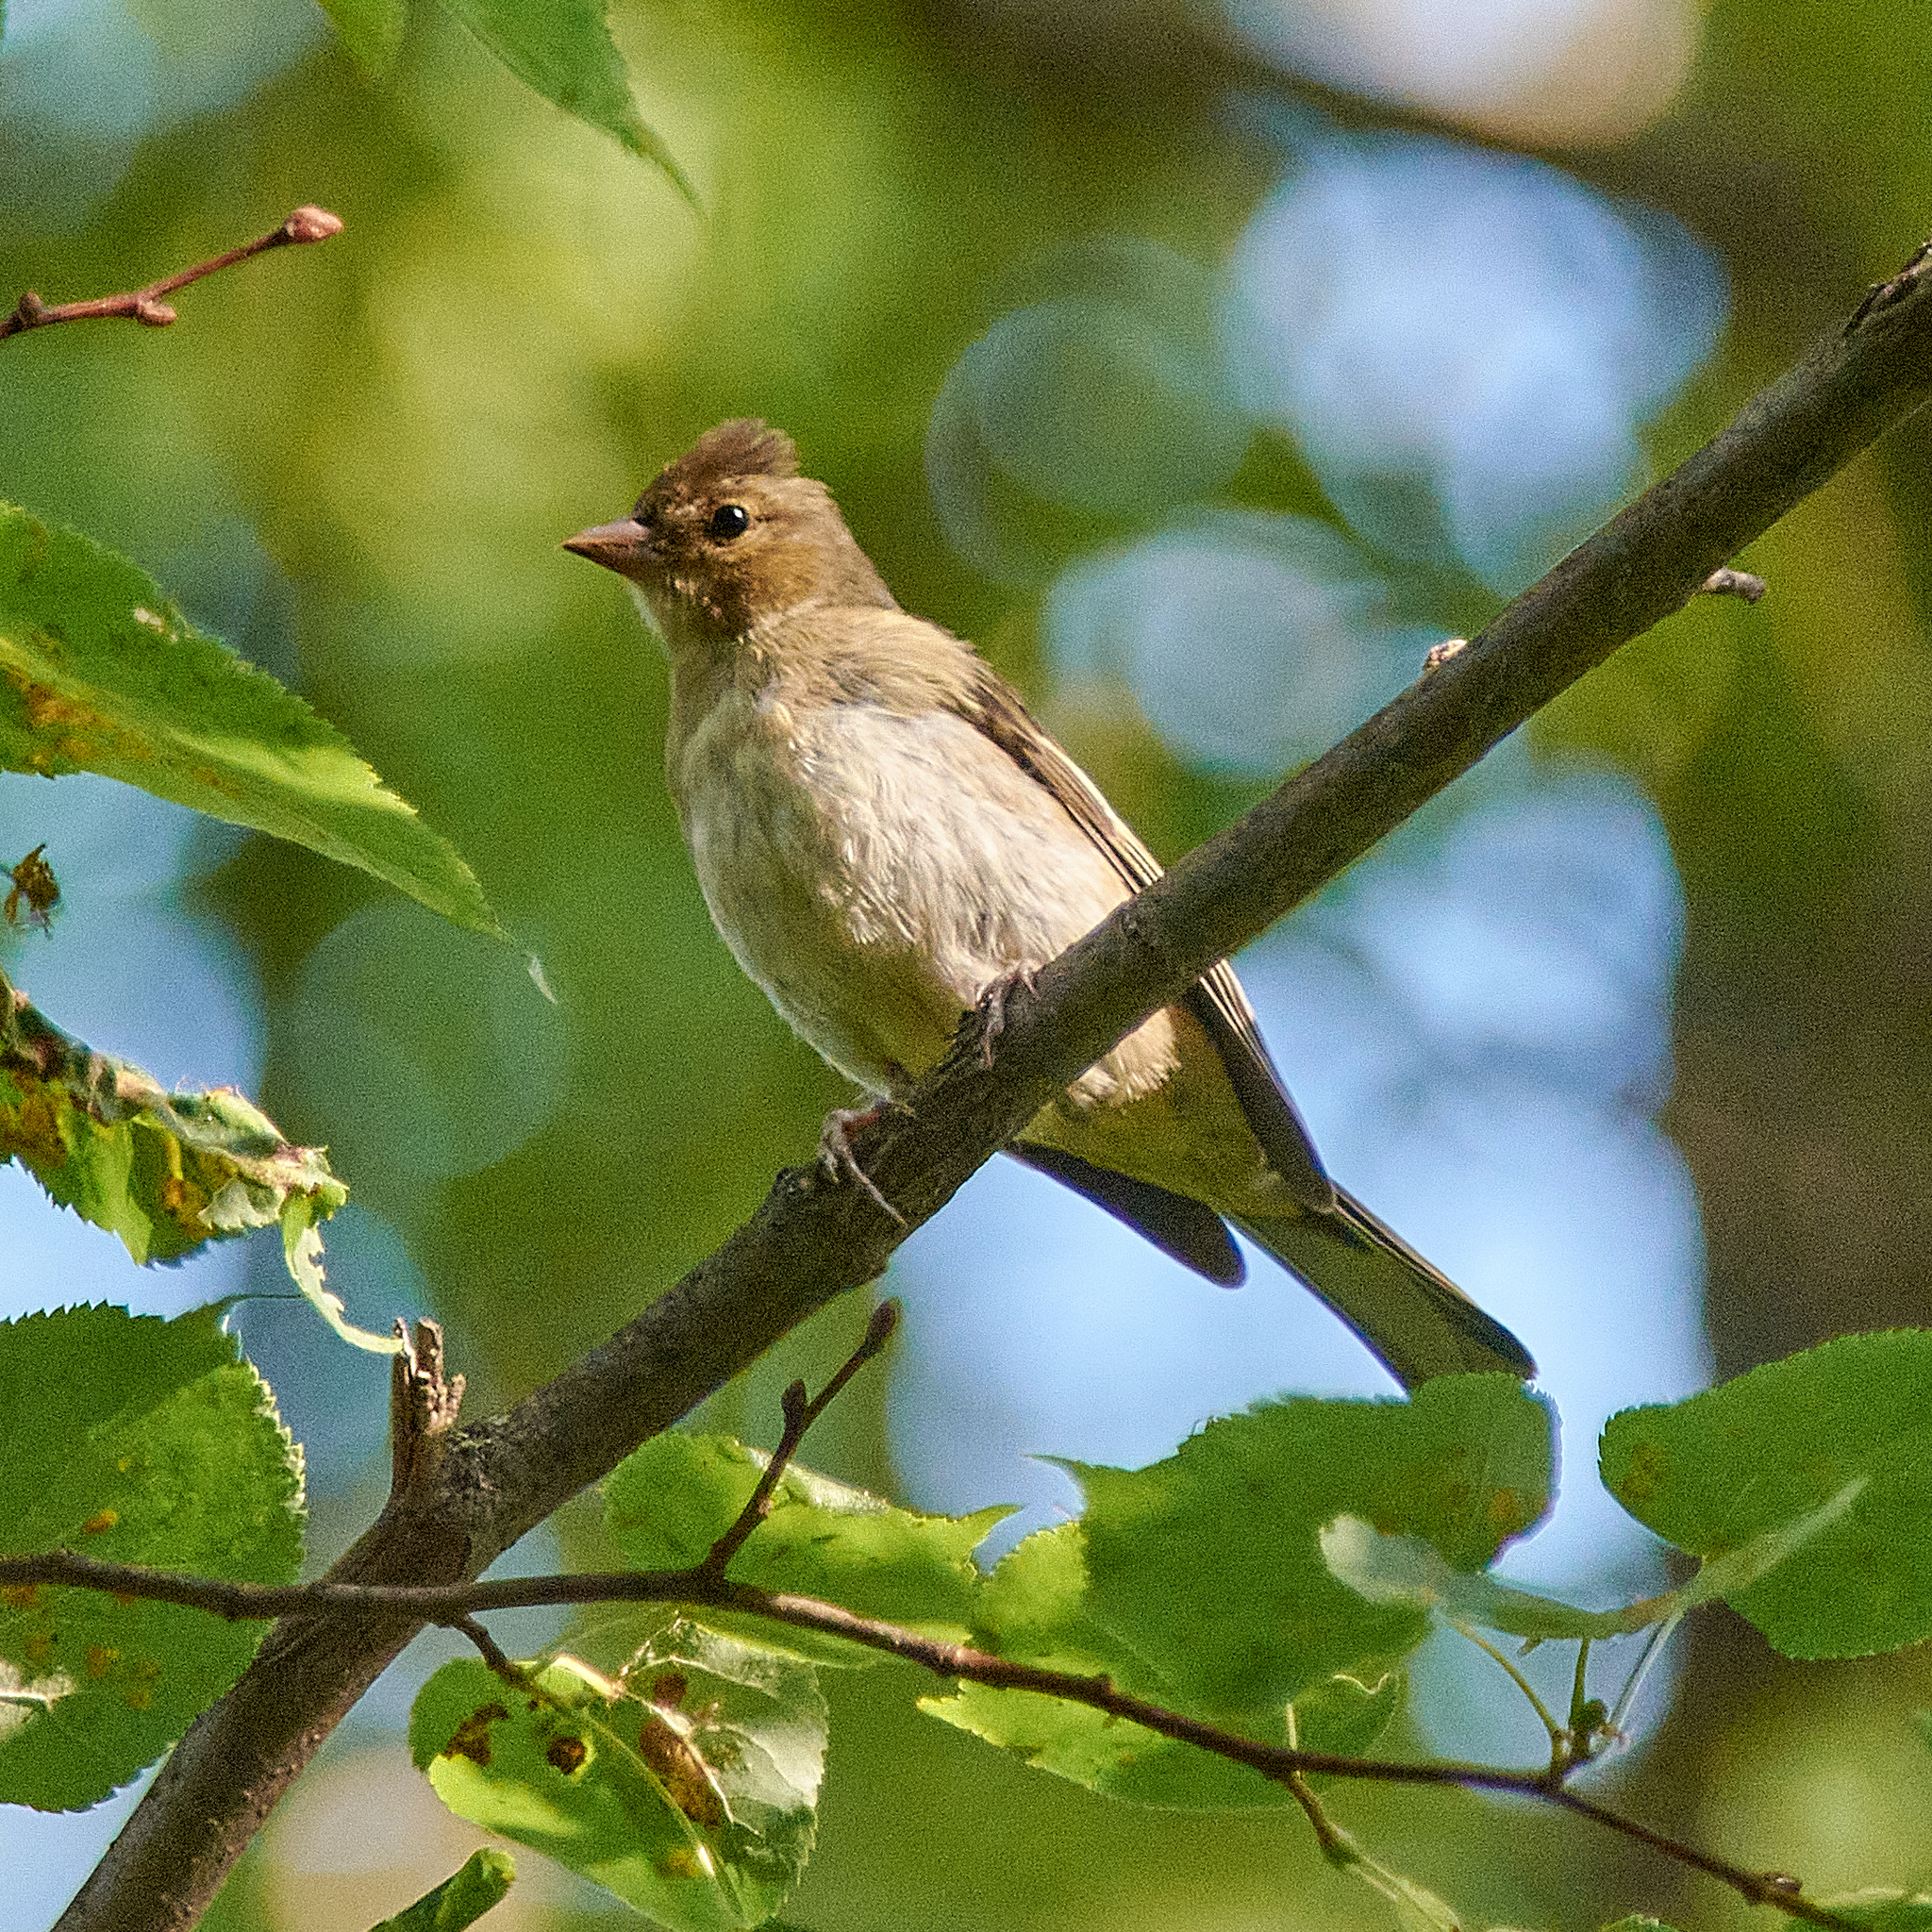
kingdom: Animalia
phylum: Chordata
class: Aves
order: Passeriformes
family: Fringillidae
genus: Fringilla
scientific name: Fringilla coelebs
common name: Common chaffinch
